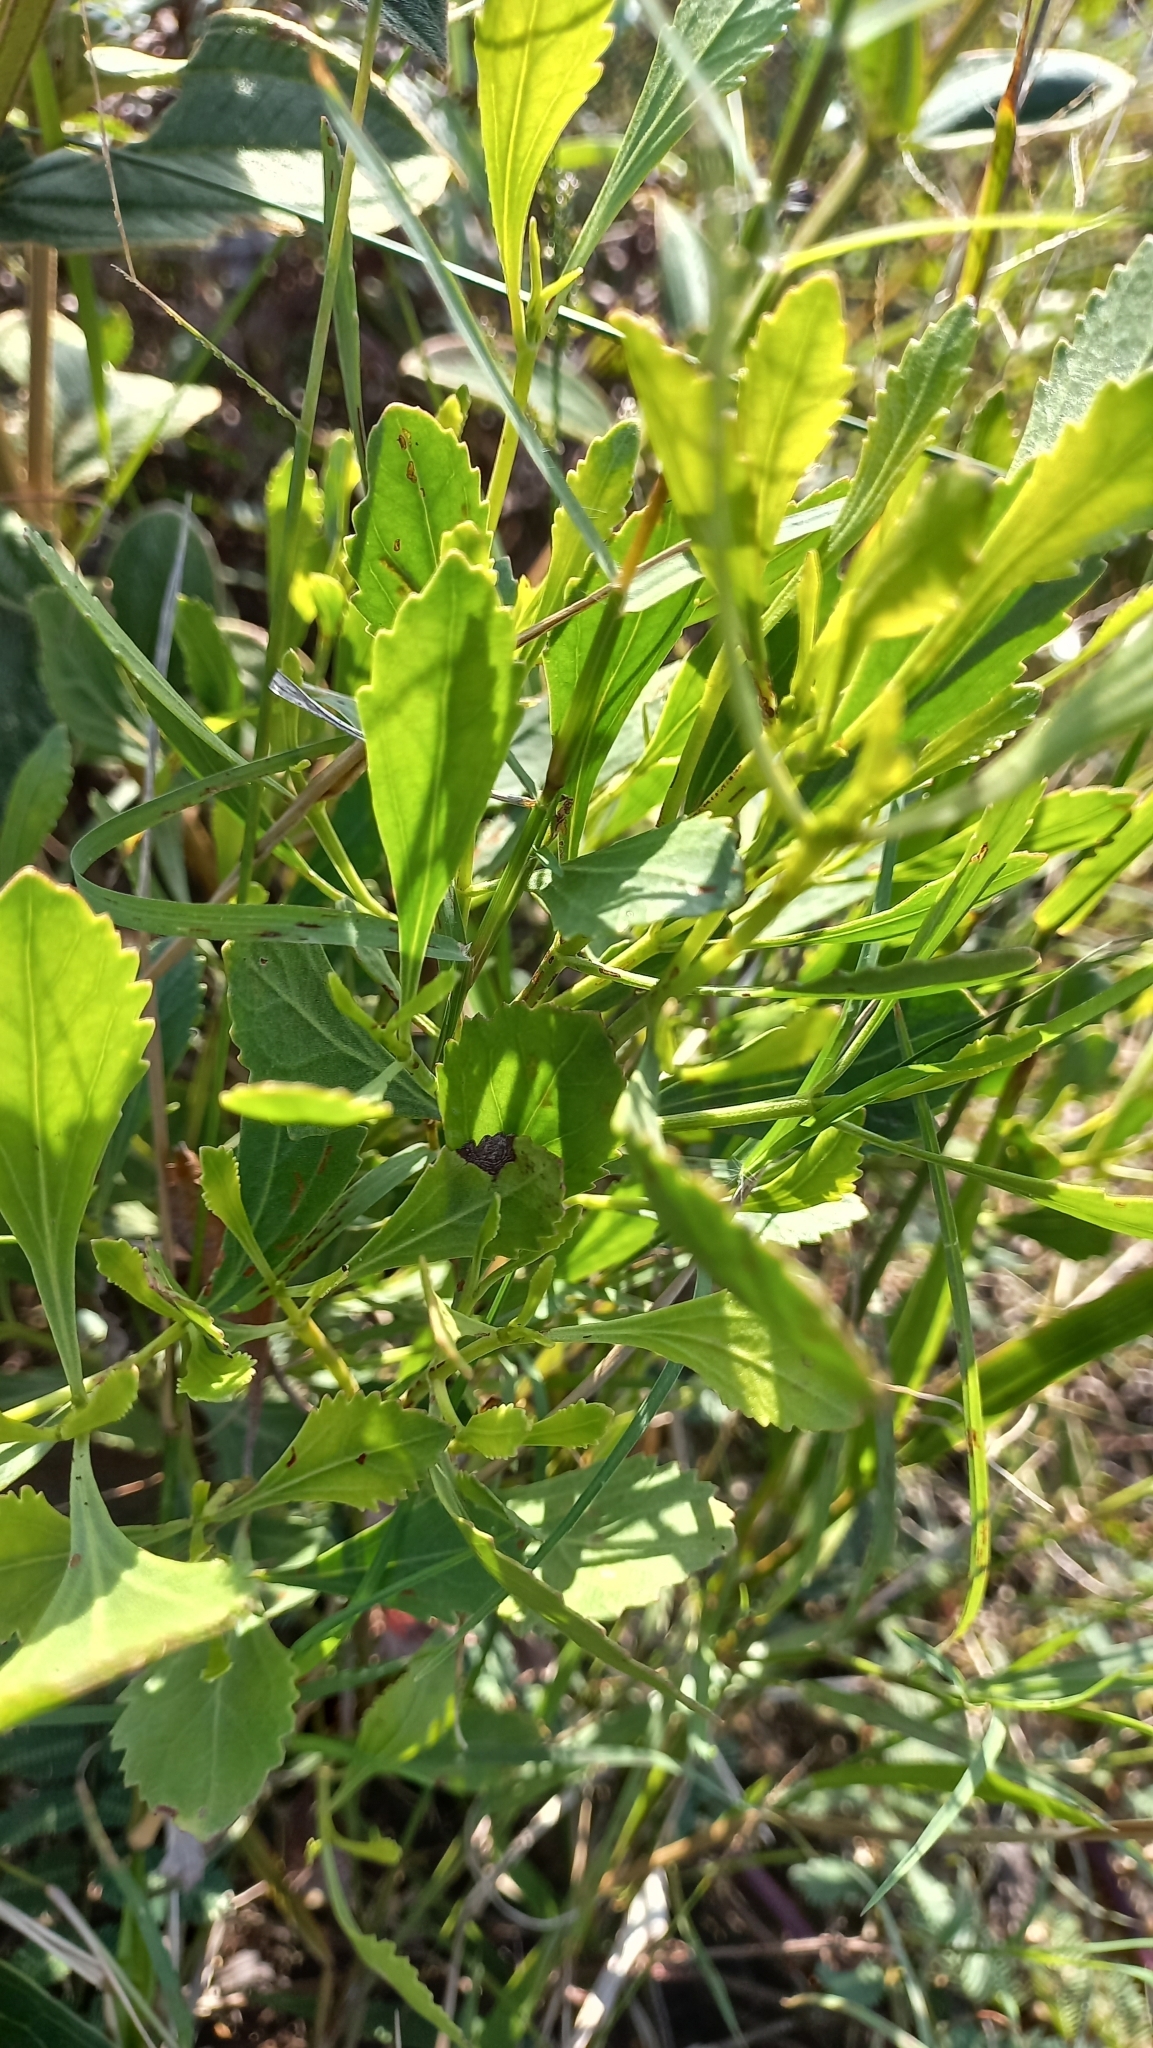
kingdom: Plantae
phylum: Tracheophyta
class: Magnoliopsida
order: Asterales
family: Asteraceae
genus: Symphyopappus
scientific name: Symphyopappus casarettoi
